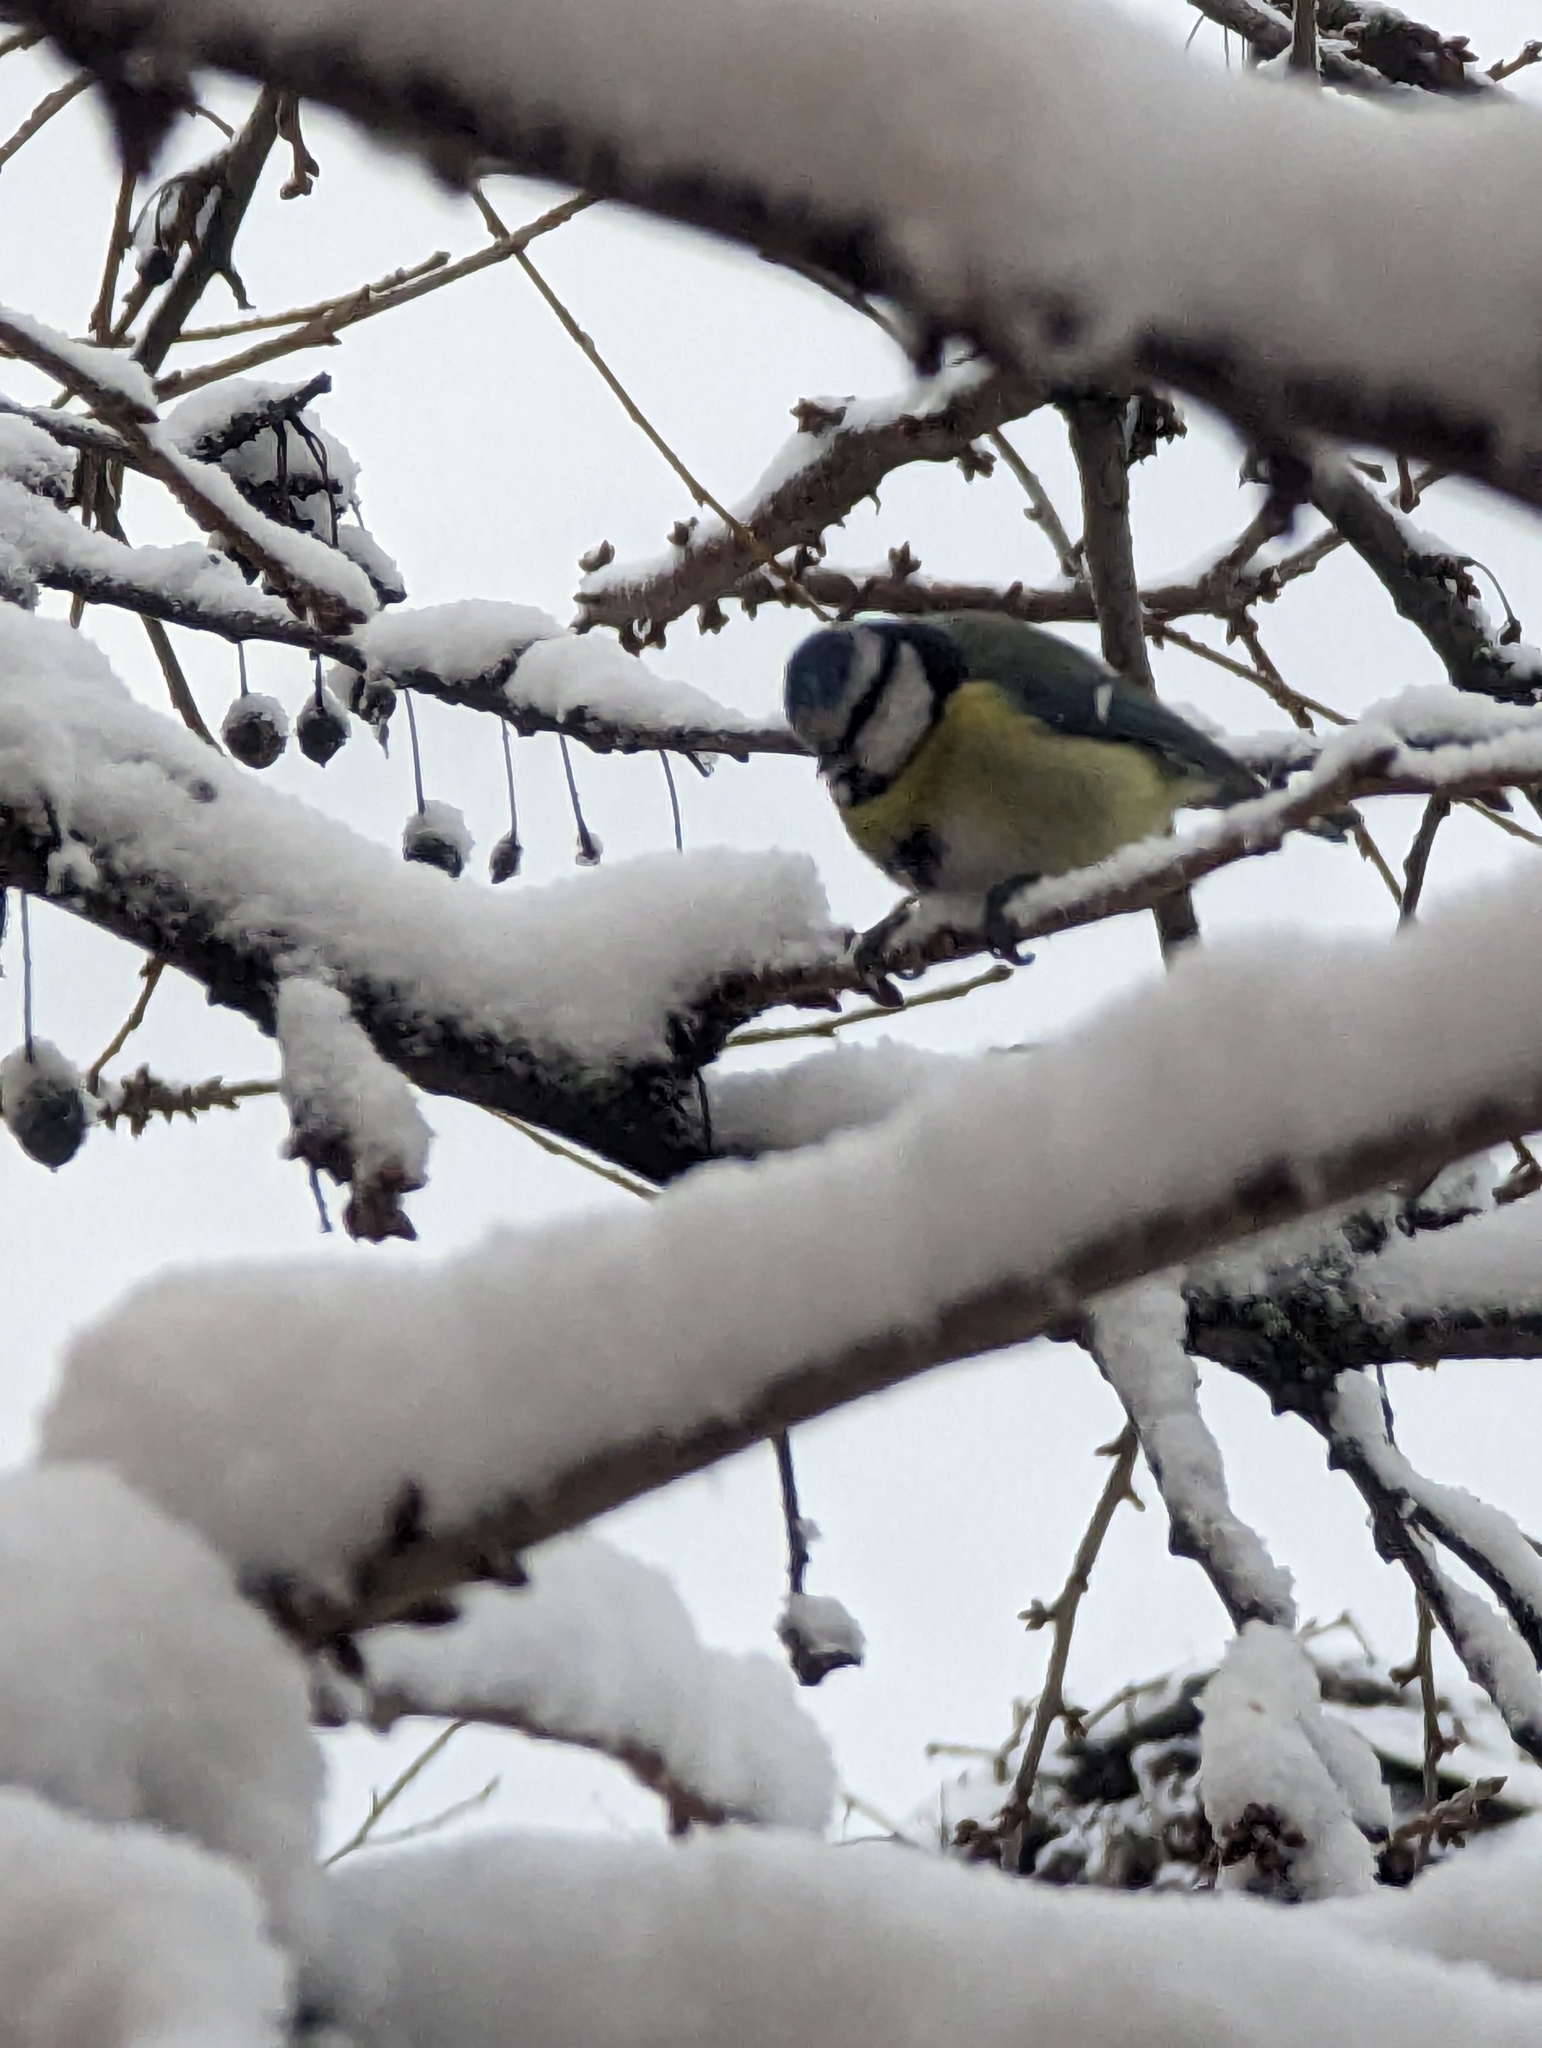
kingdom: Animalia
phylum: Chordata
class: Aves
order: Passeriformes
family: Paridae
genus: Cyanistes
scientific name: Cyanistes caeruleus
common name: Eurasian blue tit
